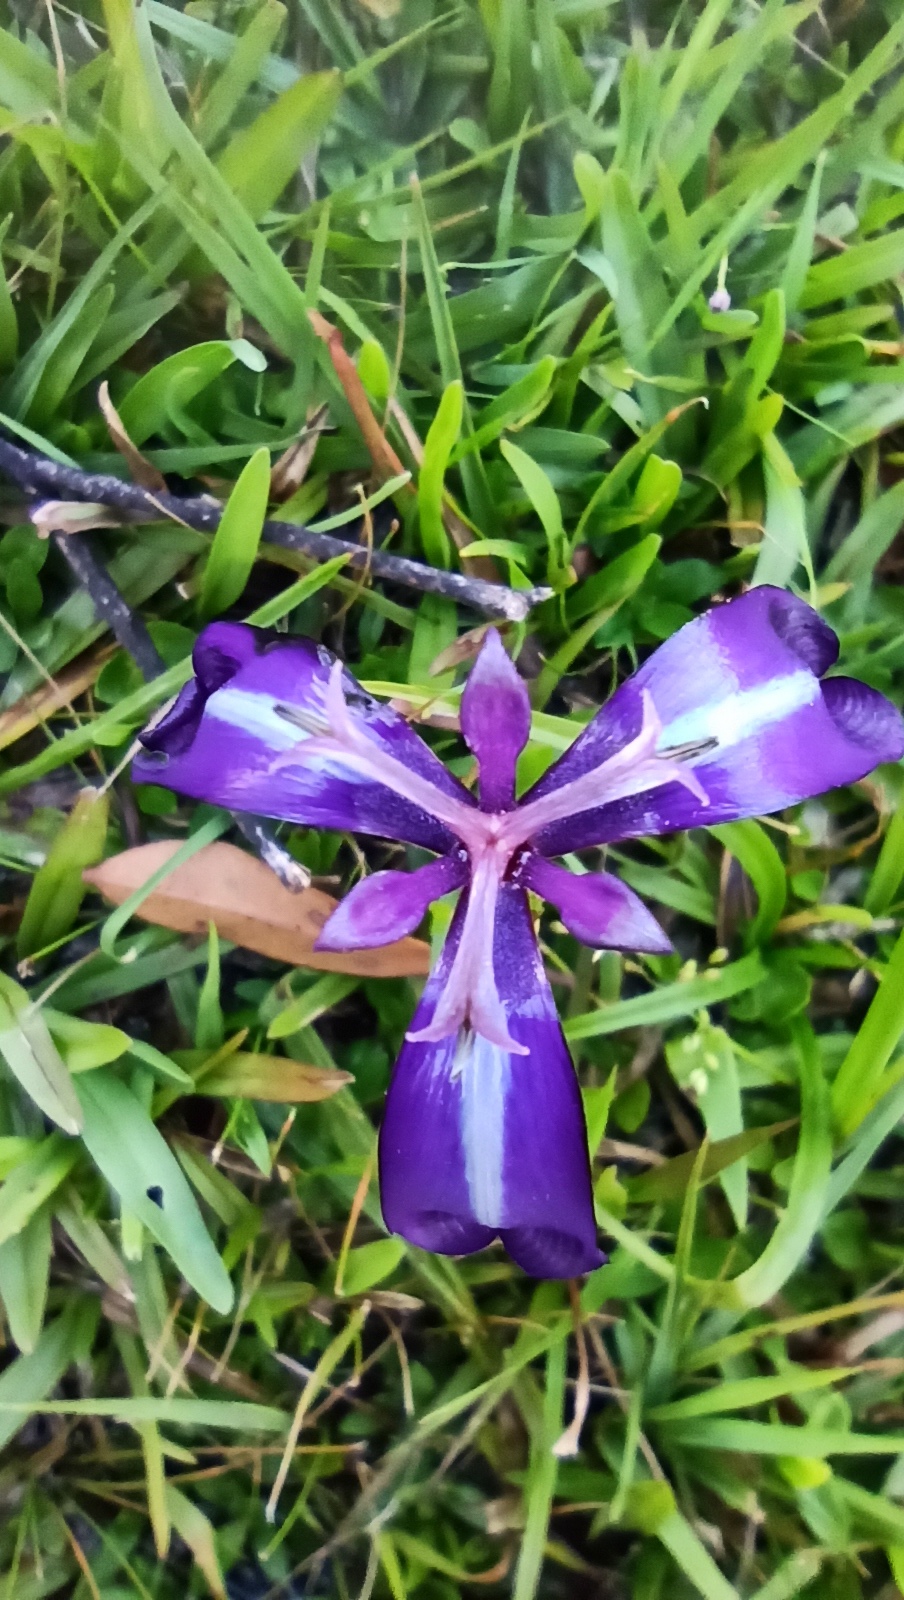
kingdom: Plantae
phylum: Tracheophyta
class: Liliopsida
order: Asparagales
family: Iridaceae
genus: Herbertia
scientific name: Herbertia pulchella
